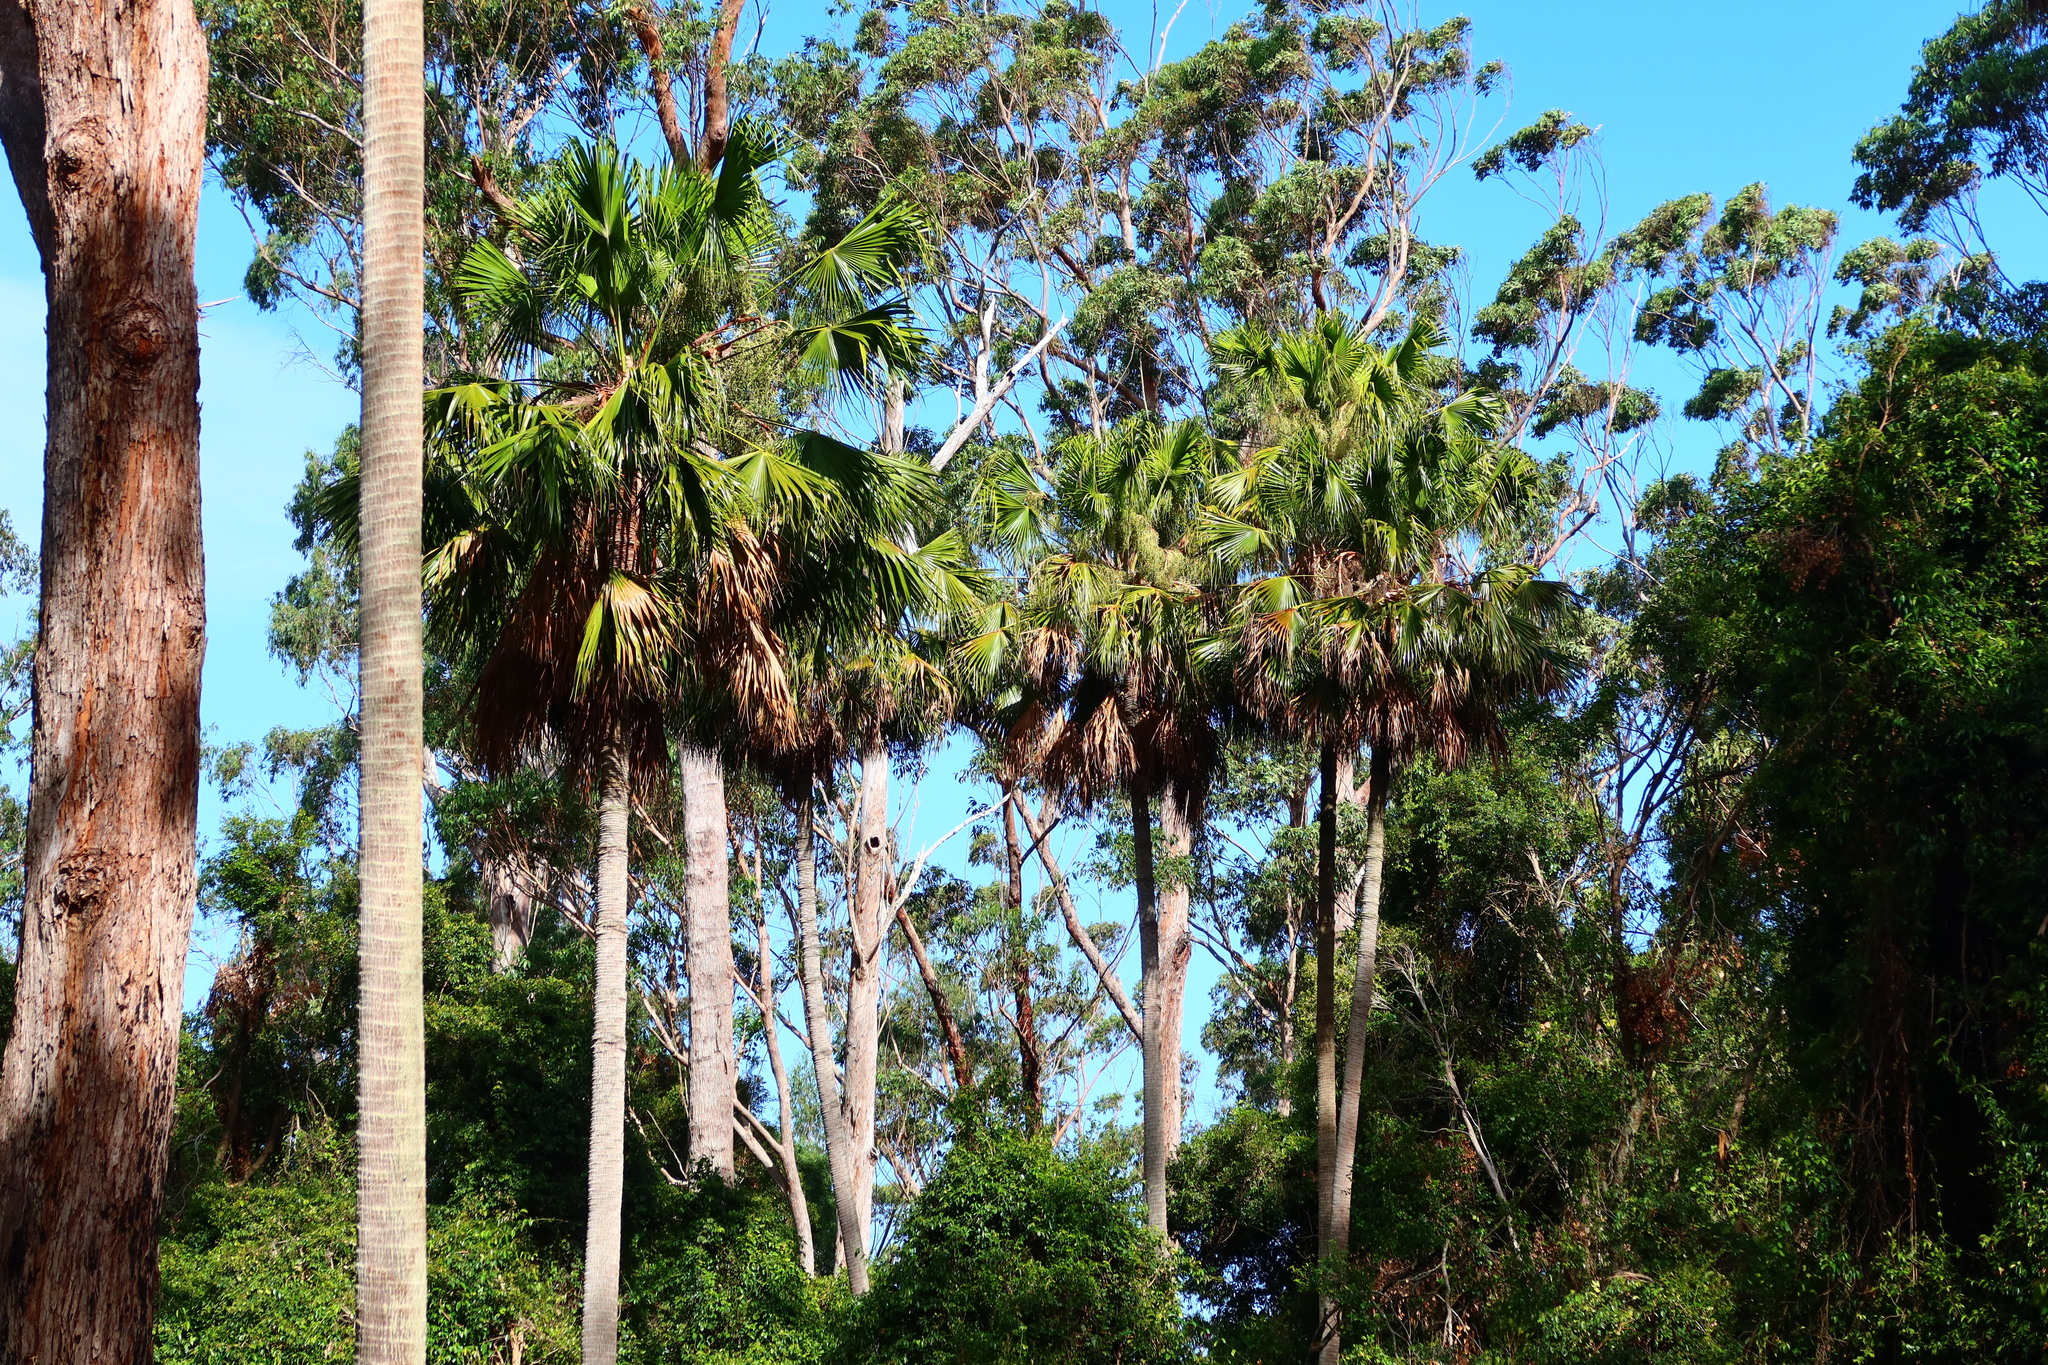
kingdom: Plantae
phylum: Tracheophyta
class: Liliopsida
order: Arecales
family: Arecaceae
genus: Livistona
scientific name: Livistona australis
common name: Cabbage fan palm
